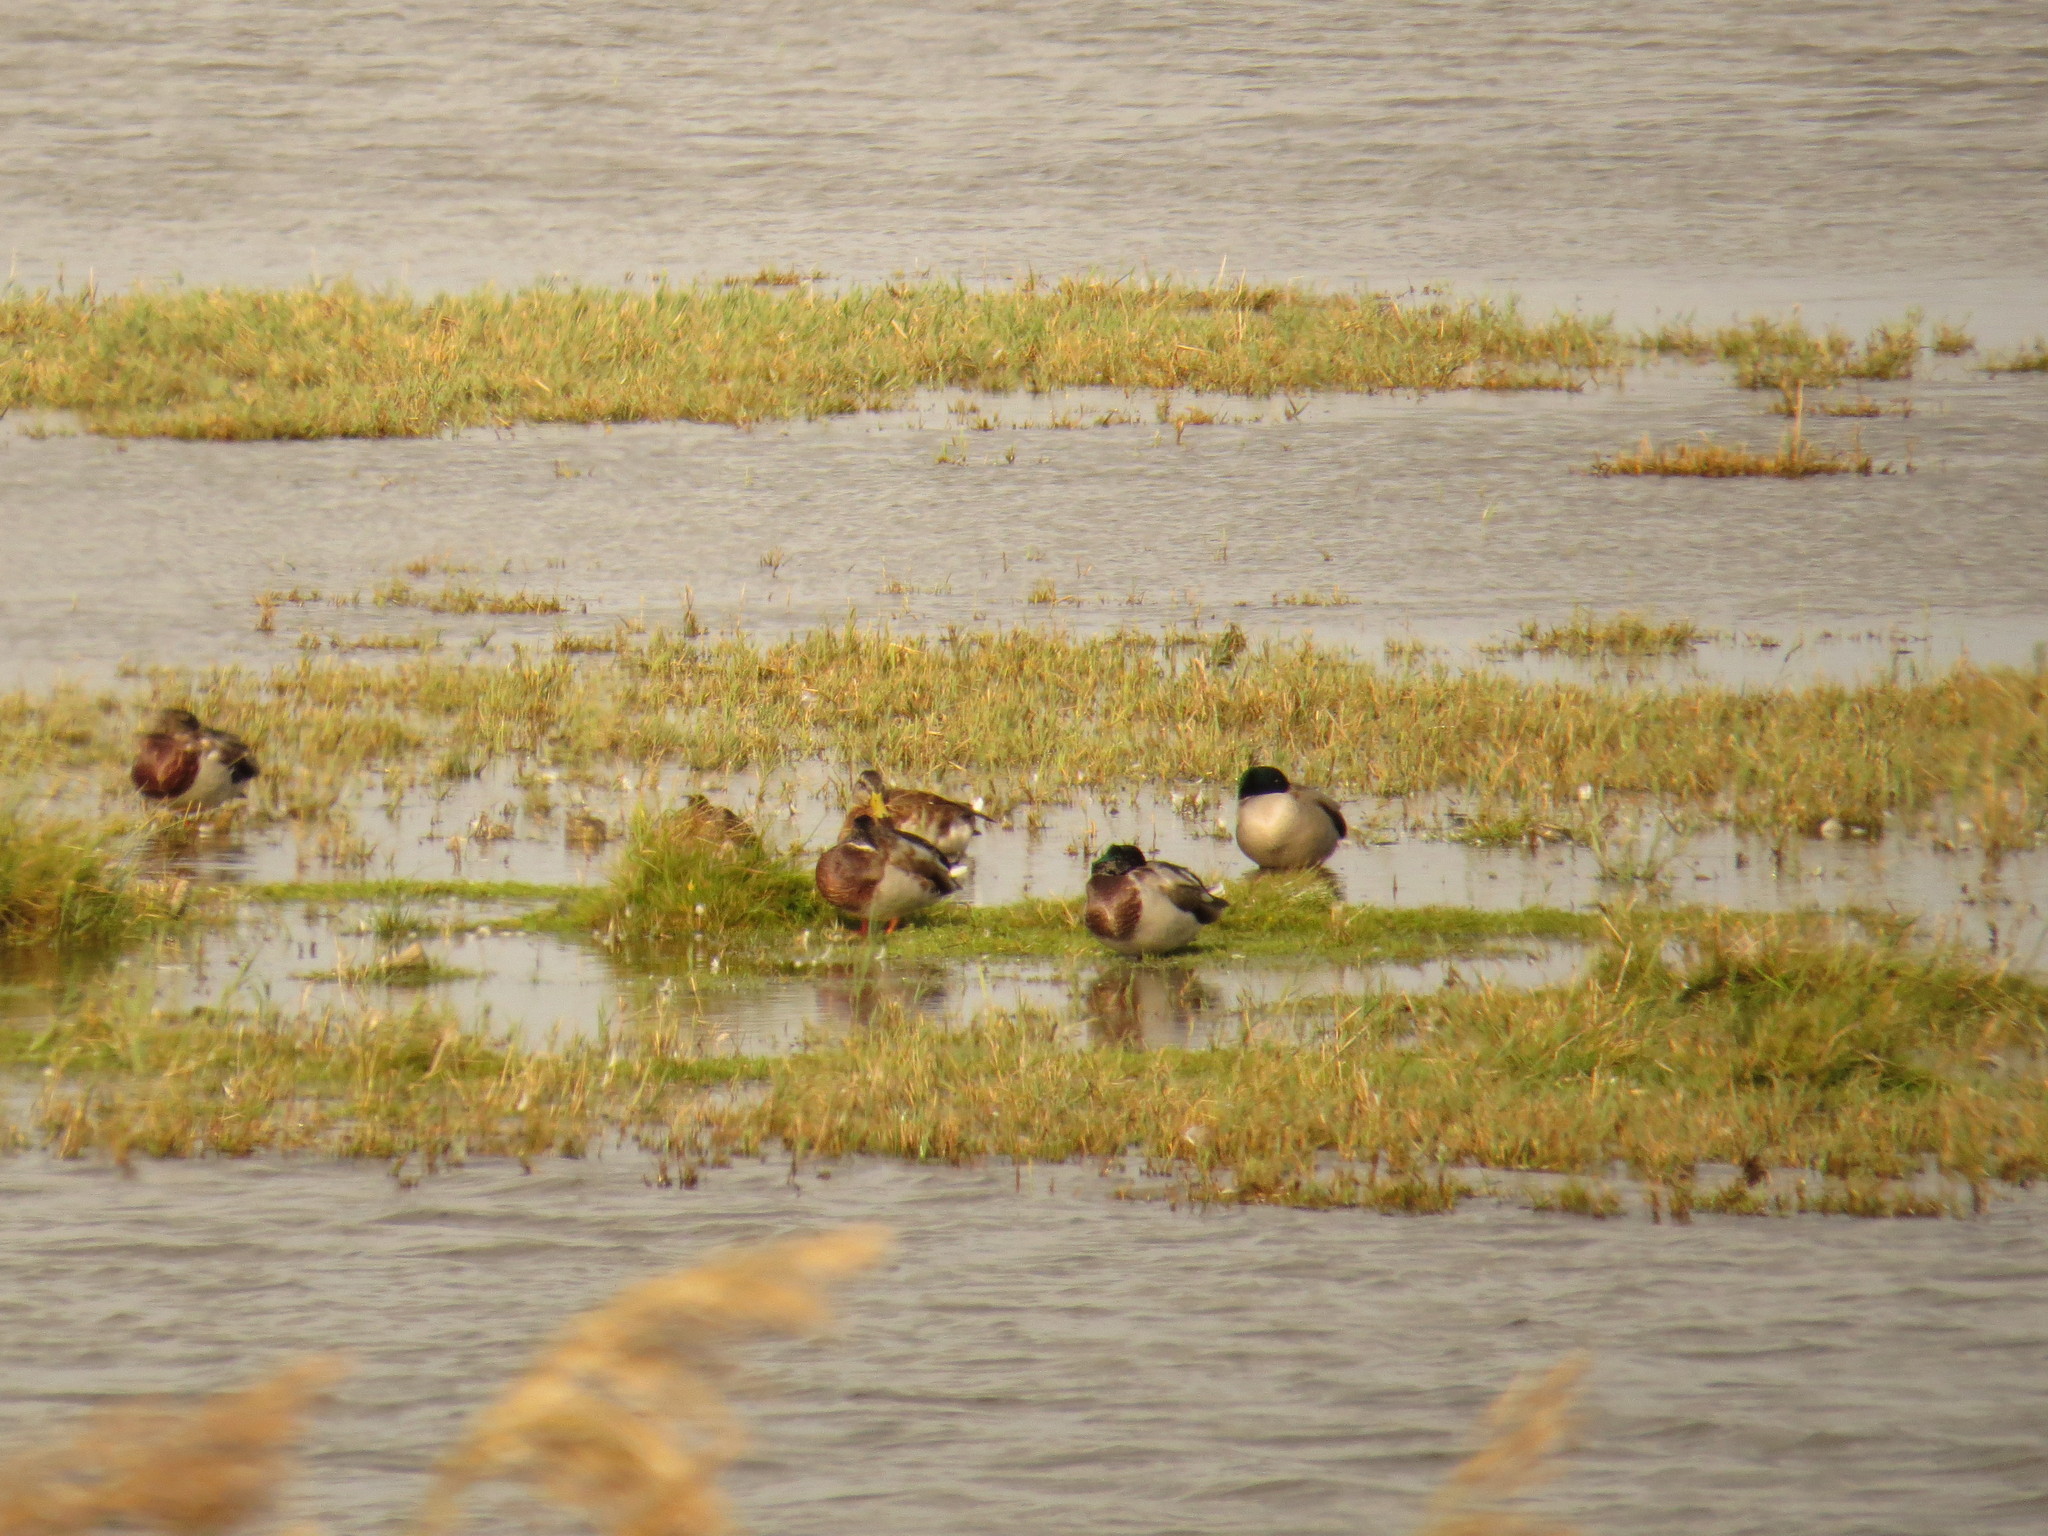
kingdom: Animalia
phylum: Chordata
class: Aves
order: Anseriformes
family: Anatidae
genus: Anas
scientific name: Anas platyrhynchos
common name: Mallard
